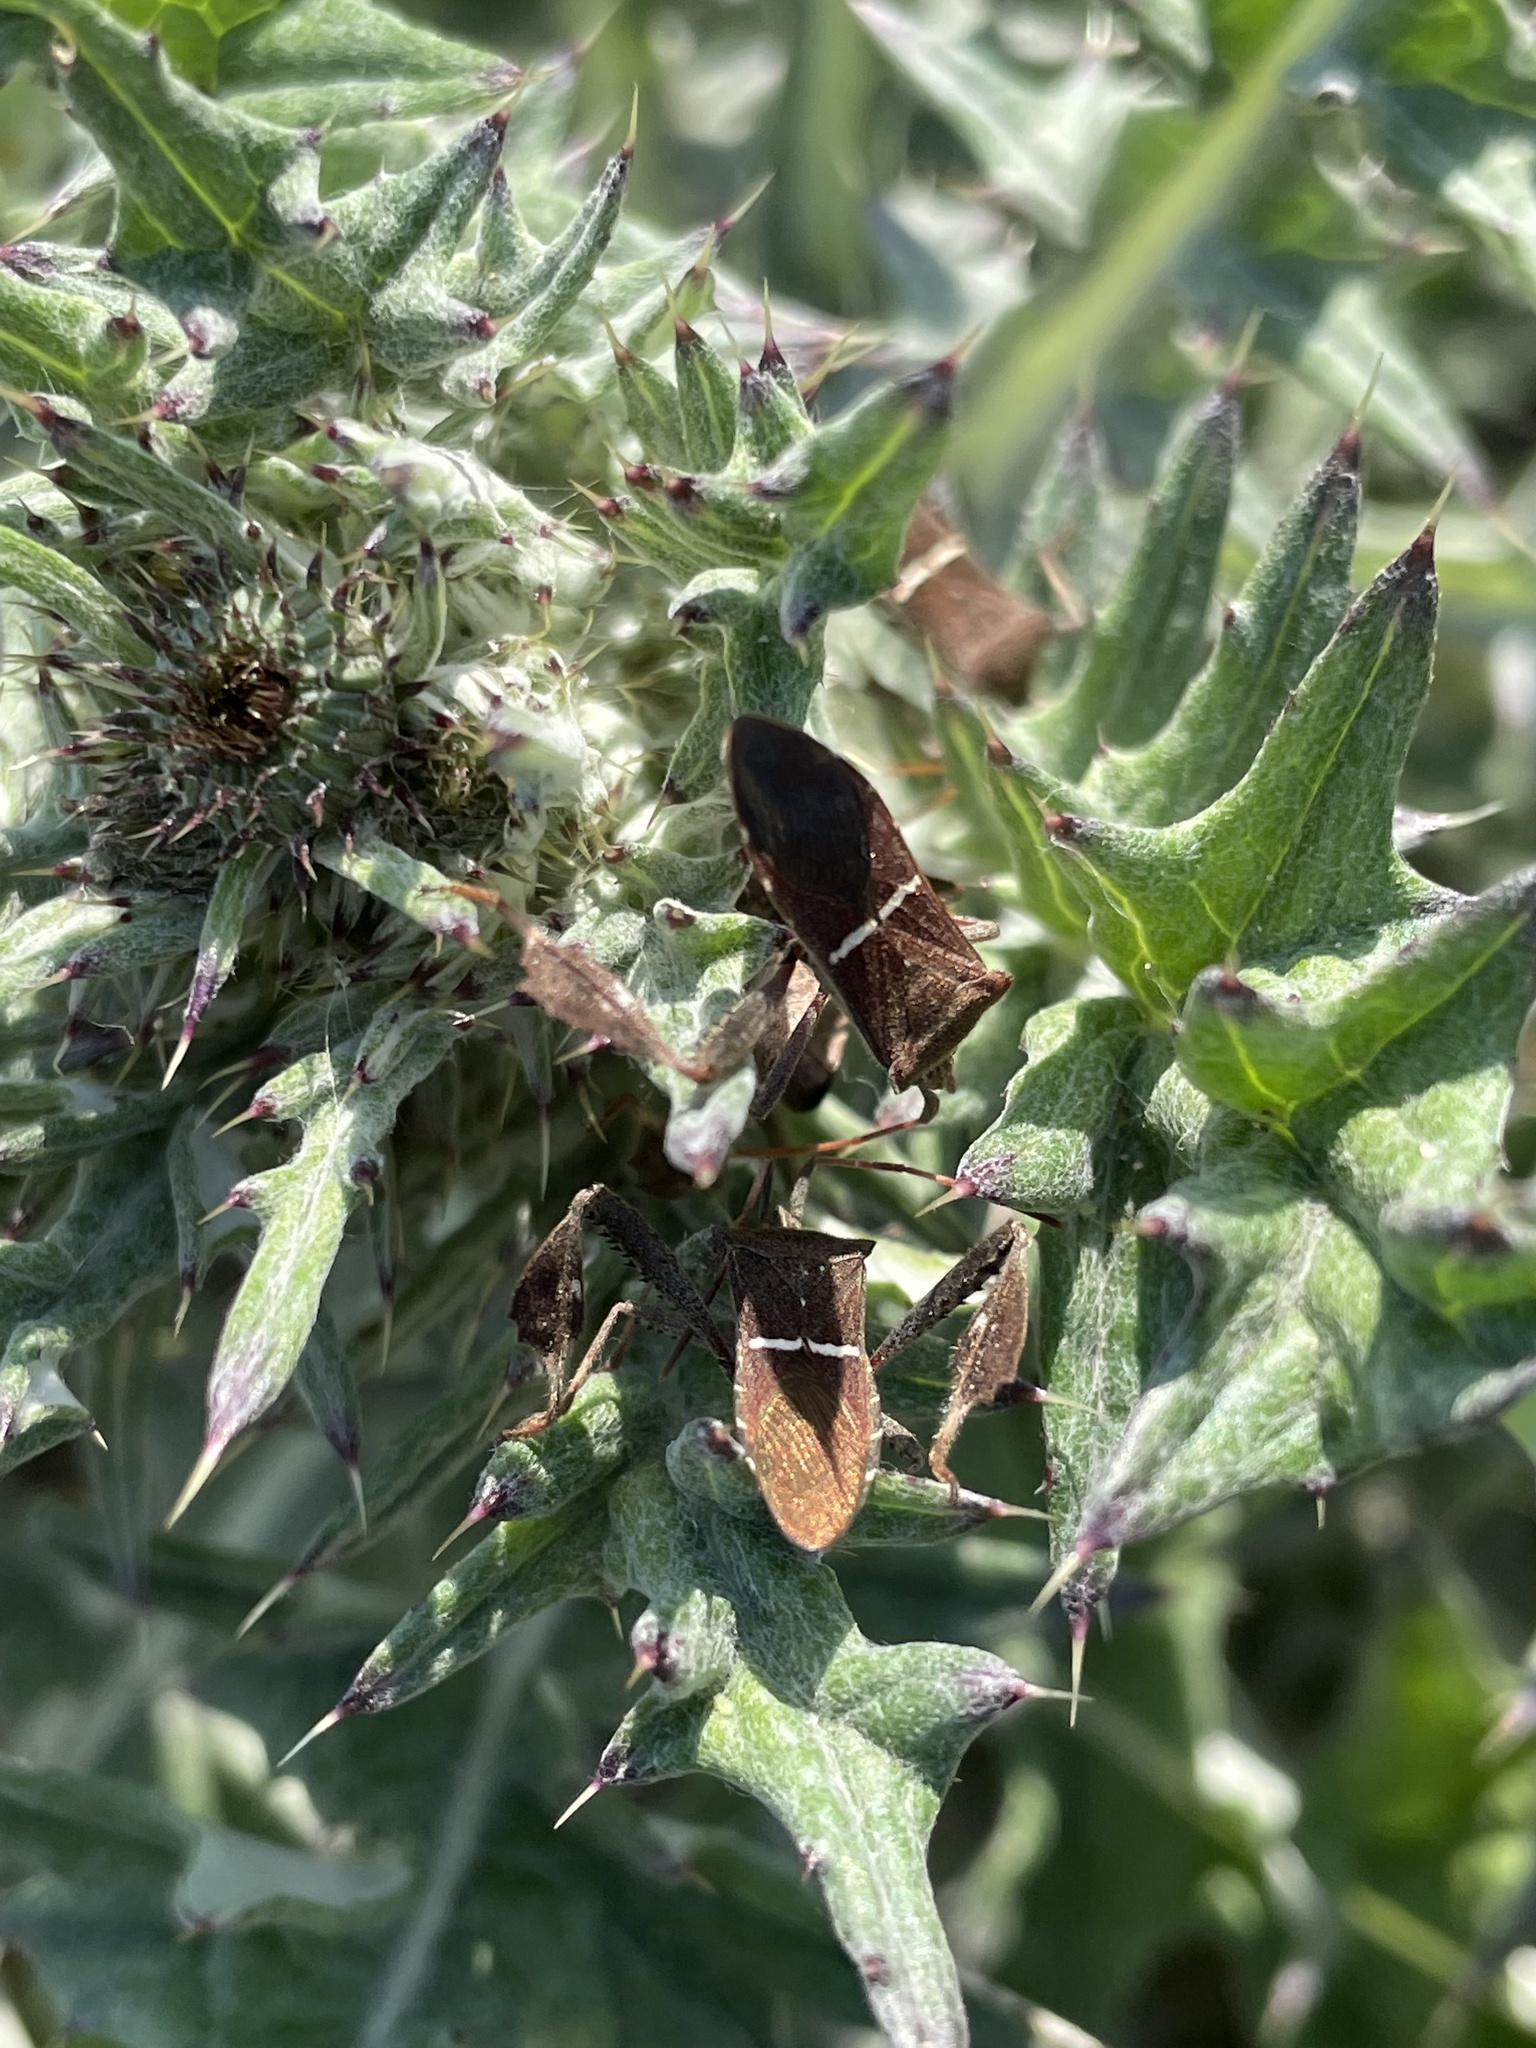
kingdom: Animalia
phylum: Arthropoda
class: Insecta
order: Hemiptera
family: Coreidae
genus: Leptoglossus
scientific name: Leptoglossus phyllopus
